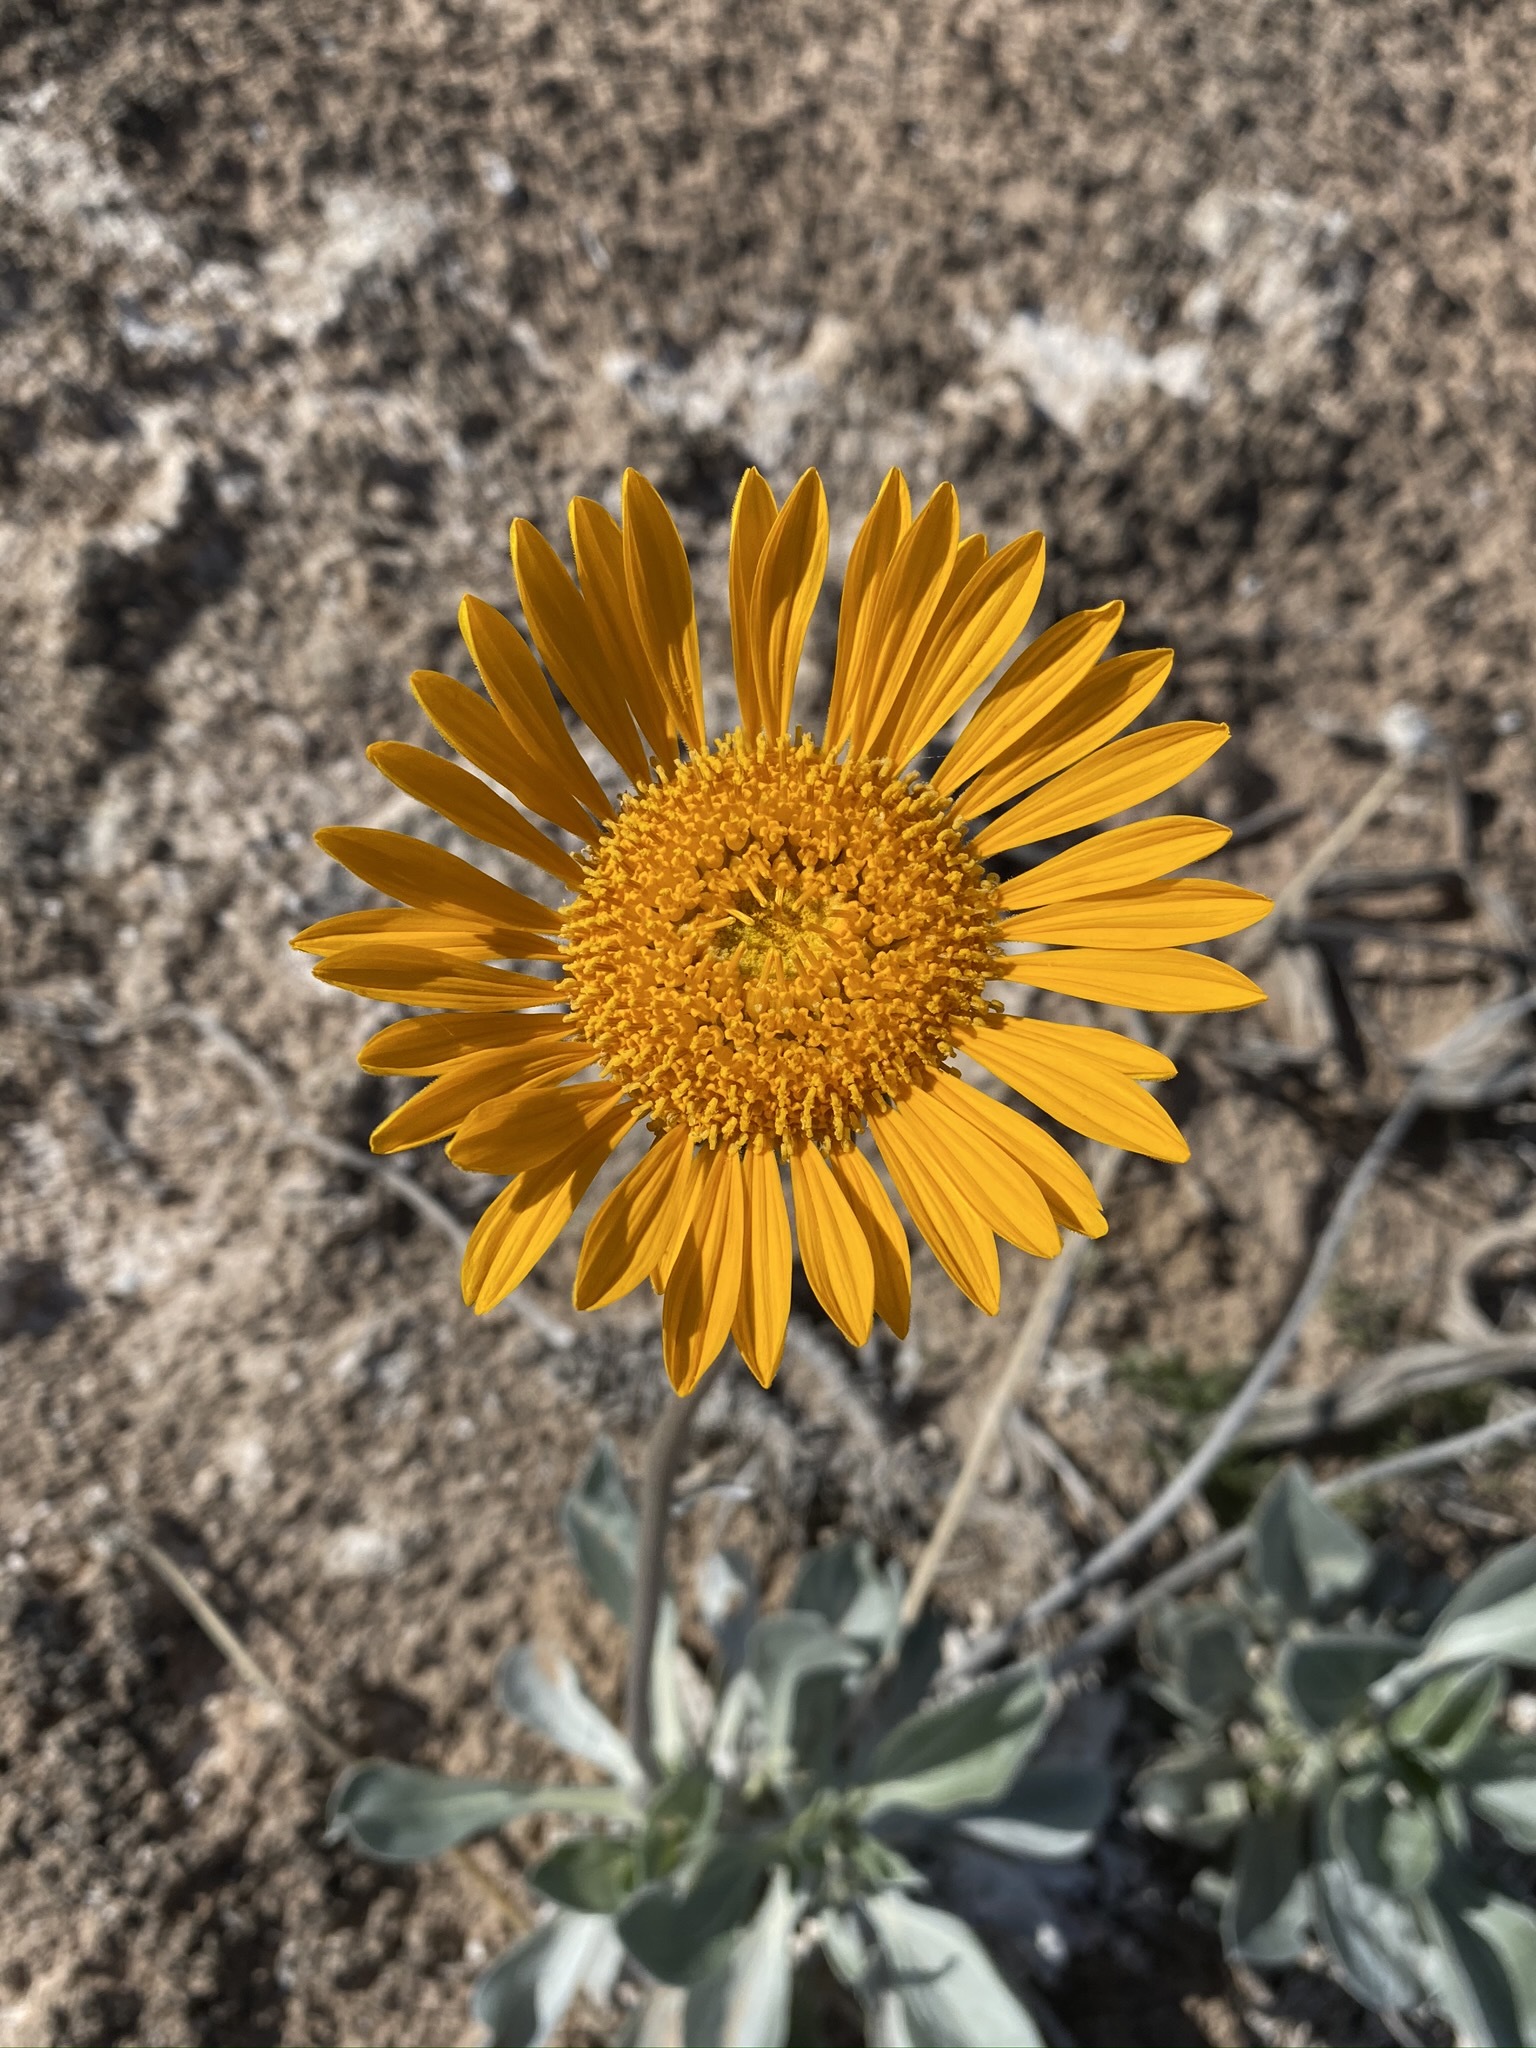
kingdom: Plantae
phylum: Tracheophyta
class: Magnoliopsida
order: Asterales
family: Asteraceae
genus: Enceliopsis
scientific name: Enceliopsis argophylla
